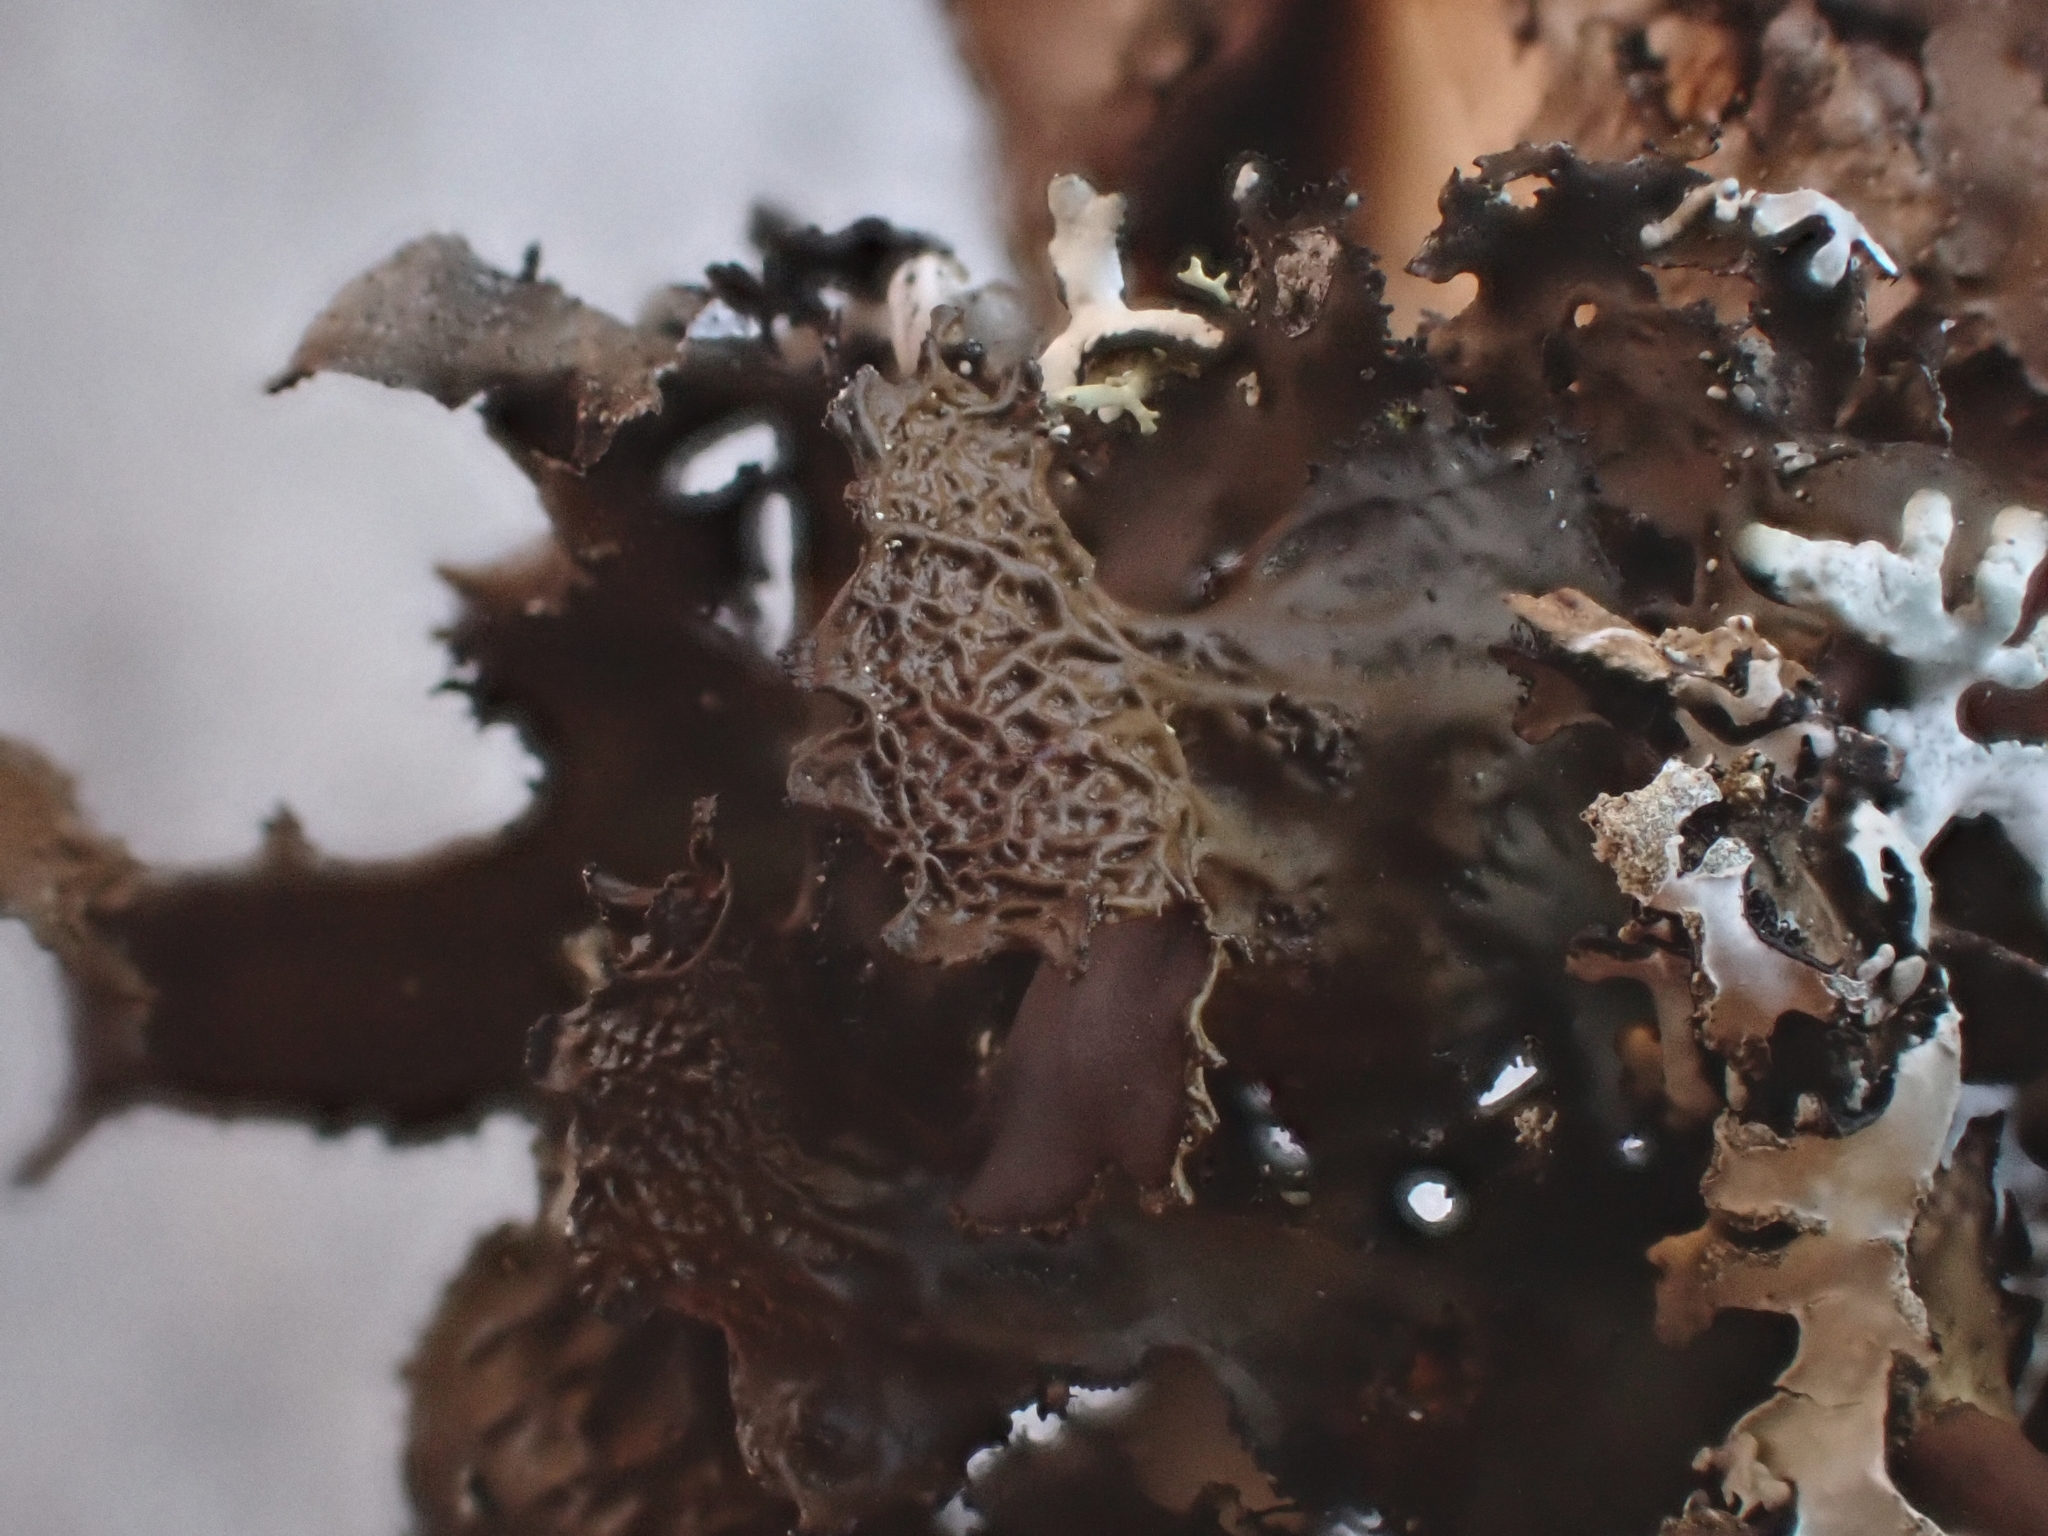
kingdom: Fungi
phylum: Ascomycota
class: Lecanoromycetes
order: Lecanorales
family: Parmeliaceae
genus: Nephromopsis
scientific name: Nephromopsis americana
